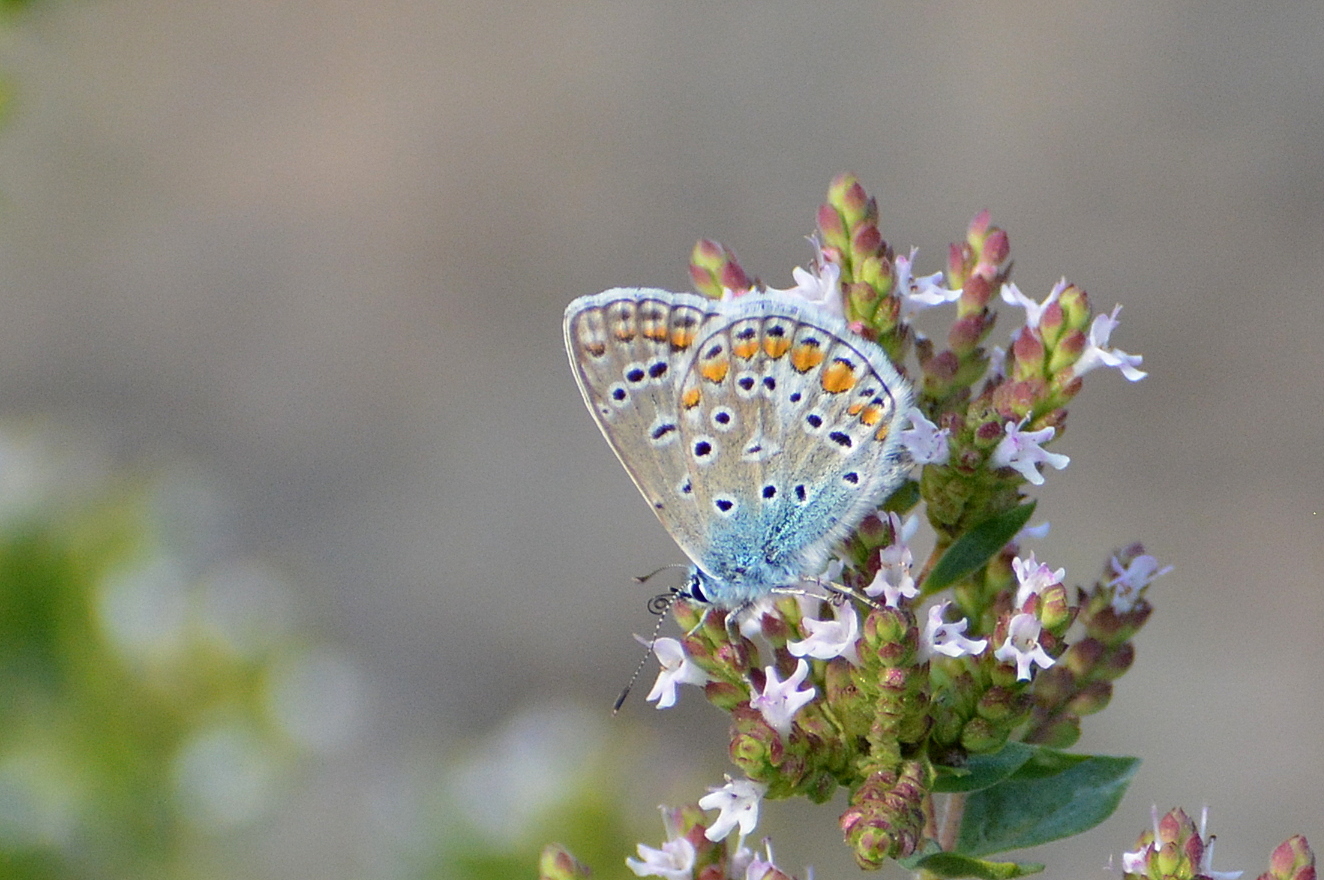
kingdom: Animalia
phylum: Arthropoda
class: Insecta
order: Lepidoptera
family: Lycaenidae
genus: Polyommatus
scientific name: Polyommatus icarus
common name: Common blue
